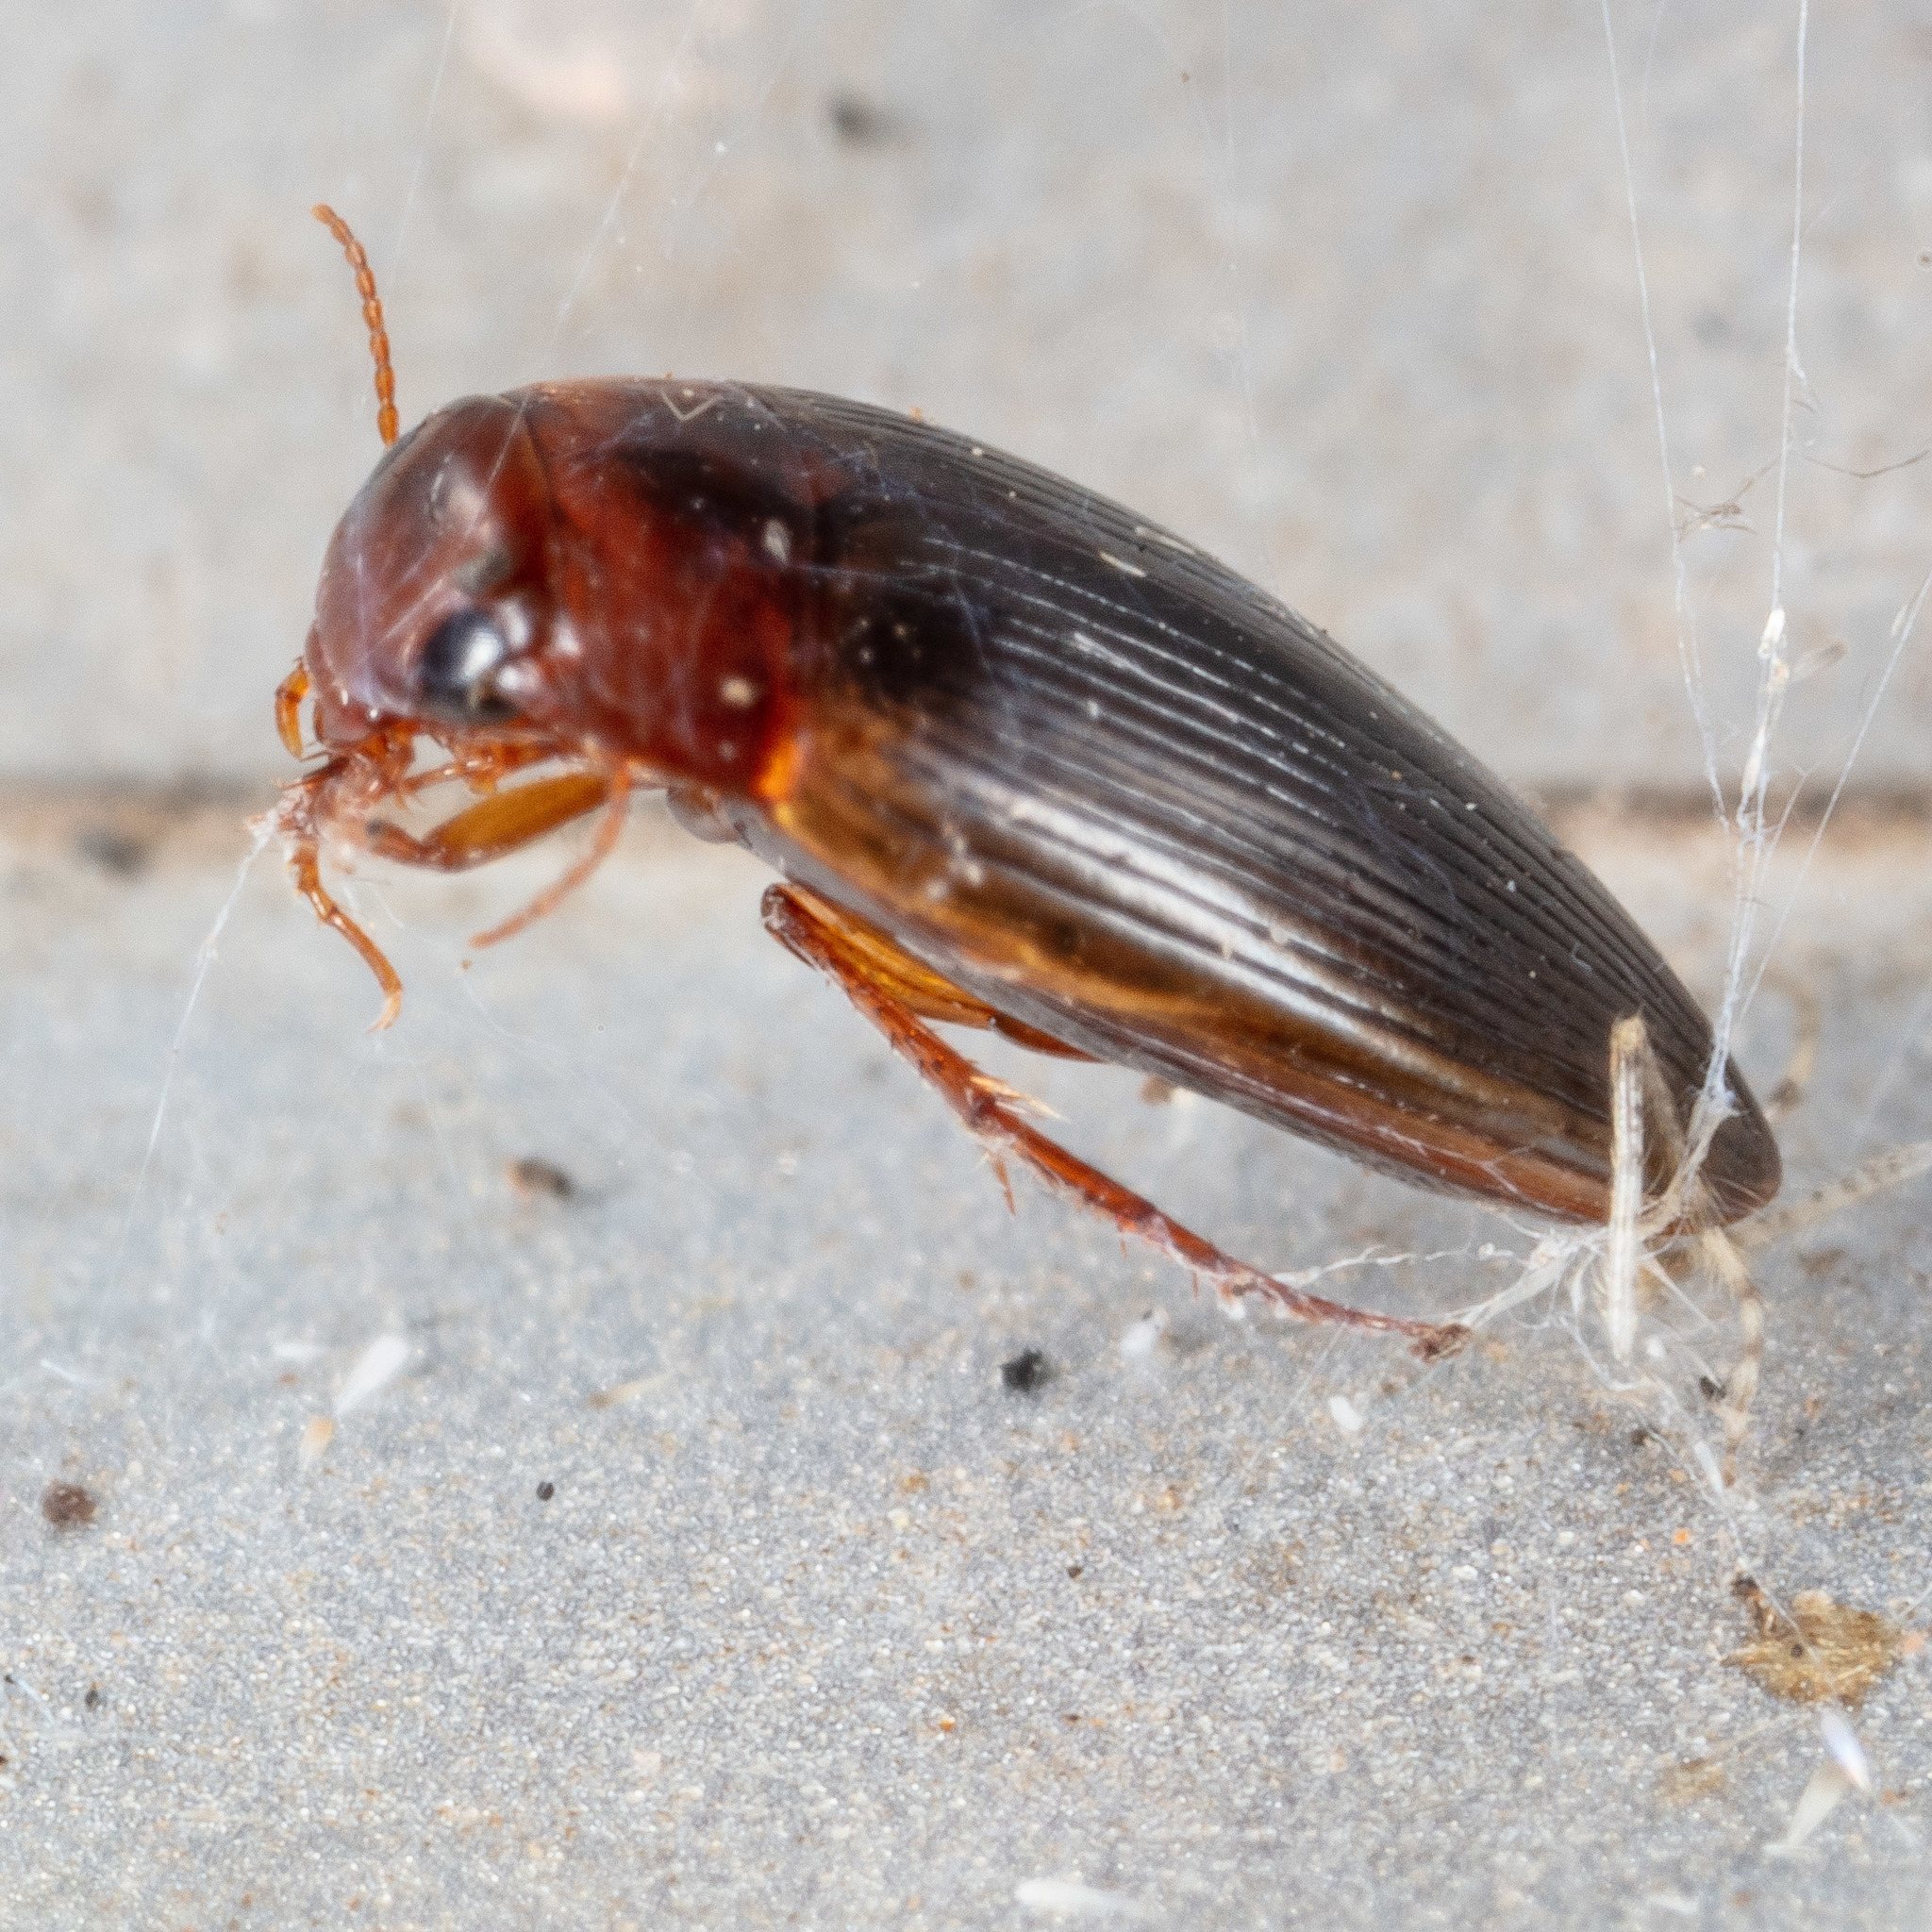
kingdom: Animalia
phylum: Arthropoda
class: Insecta
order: Coleoptera
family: Dytiscidae
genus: Copelatus
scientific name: Copelatus glyphicus
